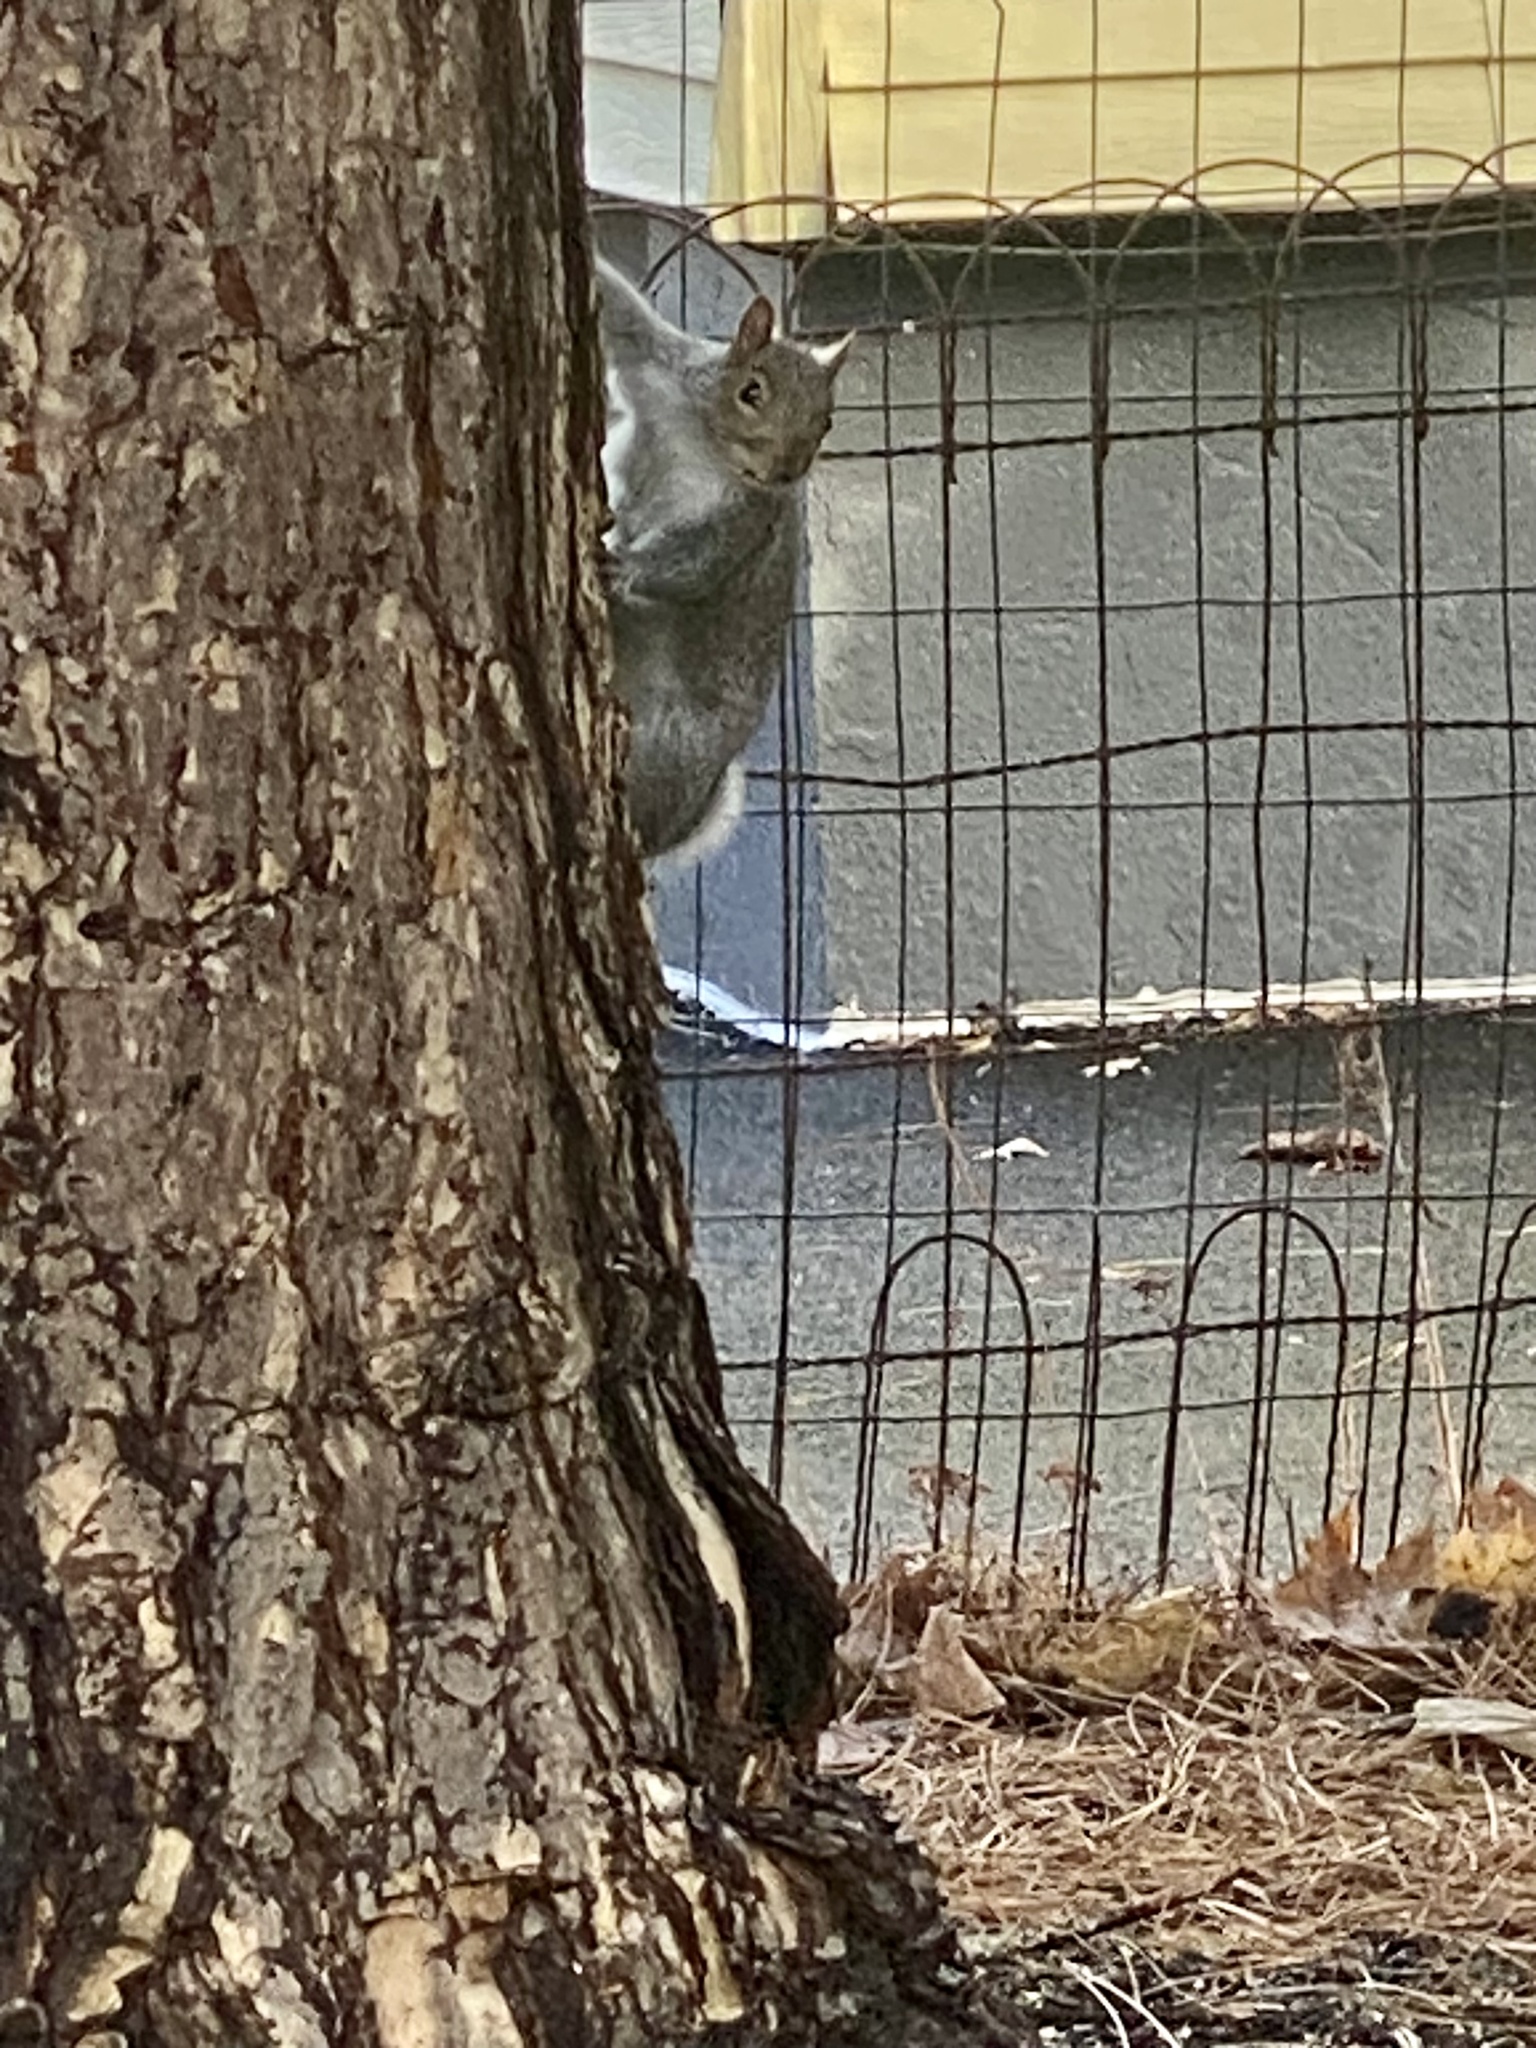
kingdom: Animalia
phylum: Chordata
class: Mammalia
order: Rodentia
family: Sciuridae
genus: Sciurus
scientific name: Sciurus carolinensis
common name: Eastern gray squirrel
